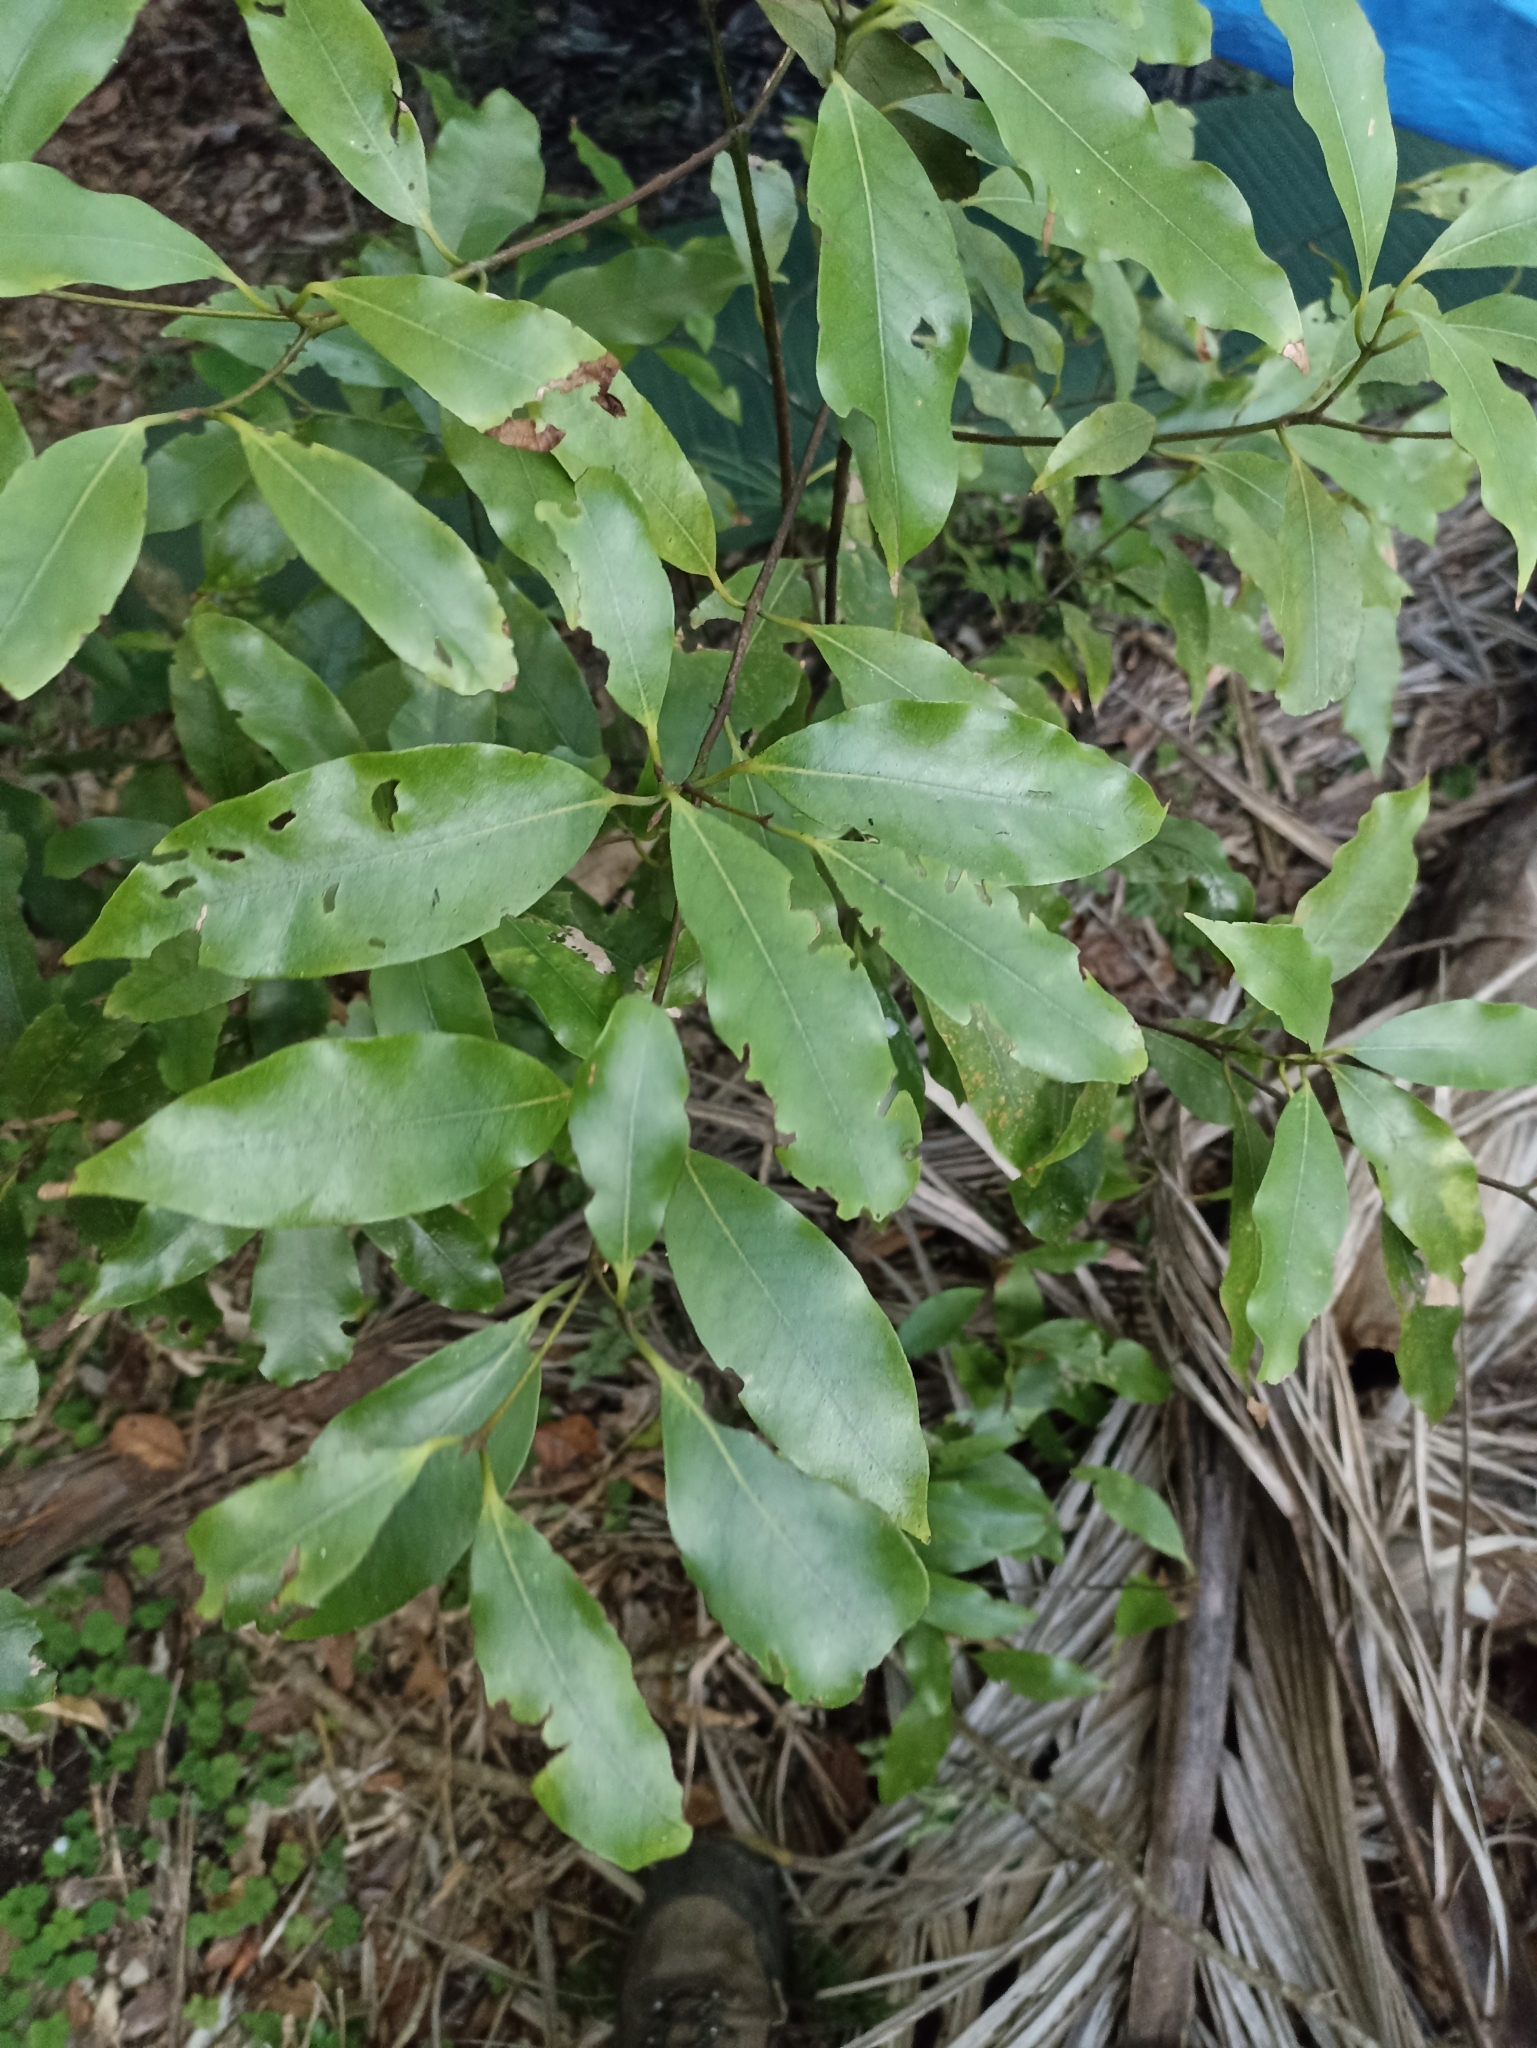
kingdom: Plantae
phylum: Tracheophyta
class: Magnoliopsida
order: Laurales
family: Lauraceae
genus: Beilschmiedia
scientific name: Beilschmiedia tawa
